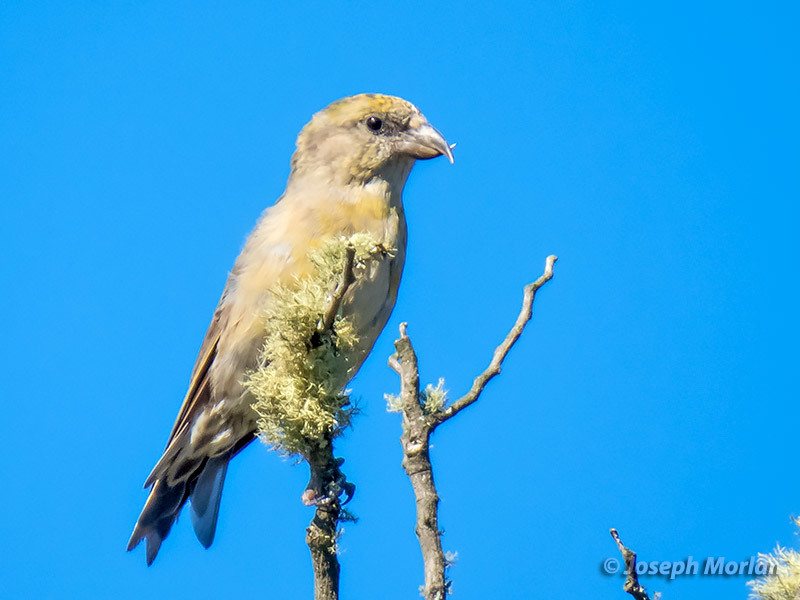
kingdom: Animalia
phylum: Chordata
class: Aves
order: Passeriformes
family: Fringillidae
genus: Loxia
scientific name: Loxia curvirostra
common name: Red crossbill
